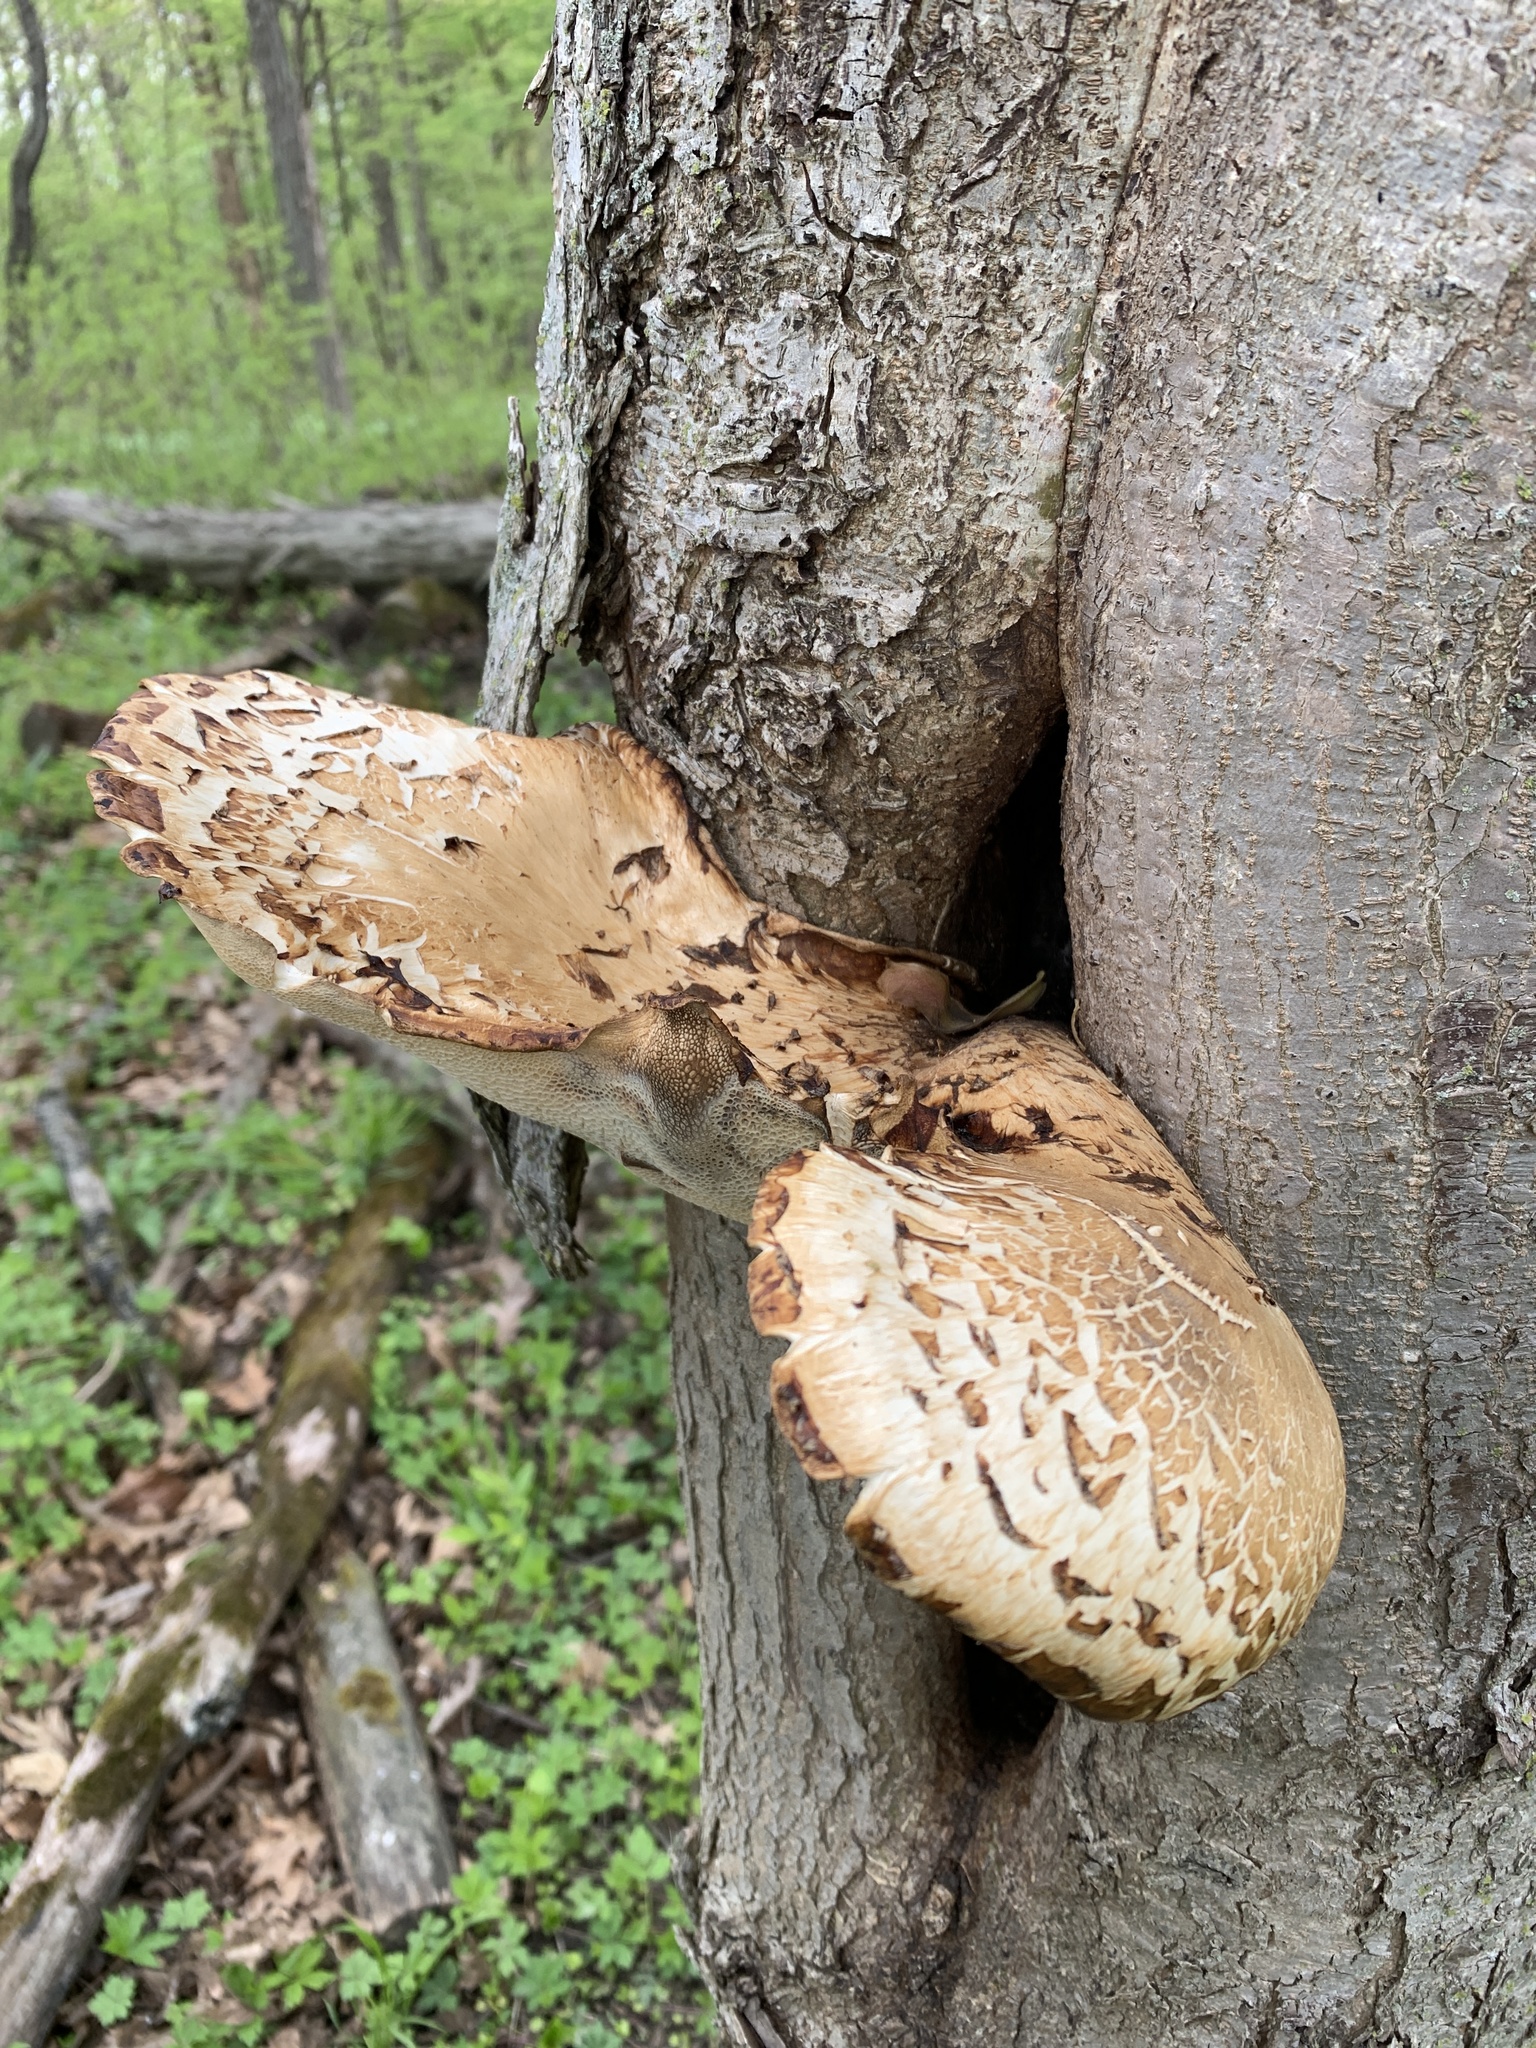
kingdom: Fungi
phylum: Basidiomycota
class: Agaricomycetes
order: Polyporales
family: Polyporaceae
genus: Cerioporus
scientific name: Cerioporus squamosus
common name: Dryad's saddle
